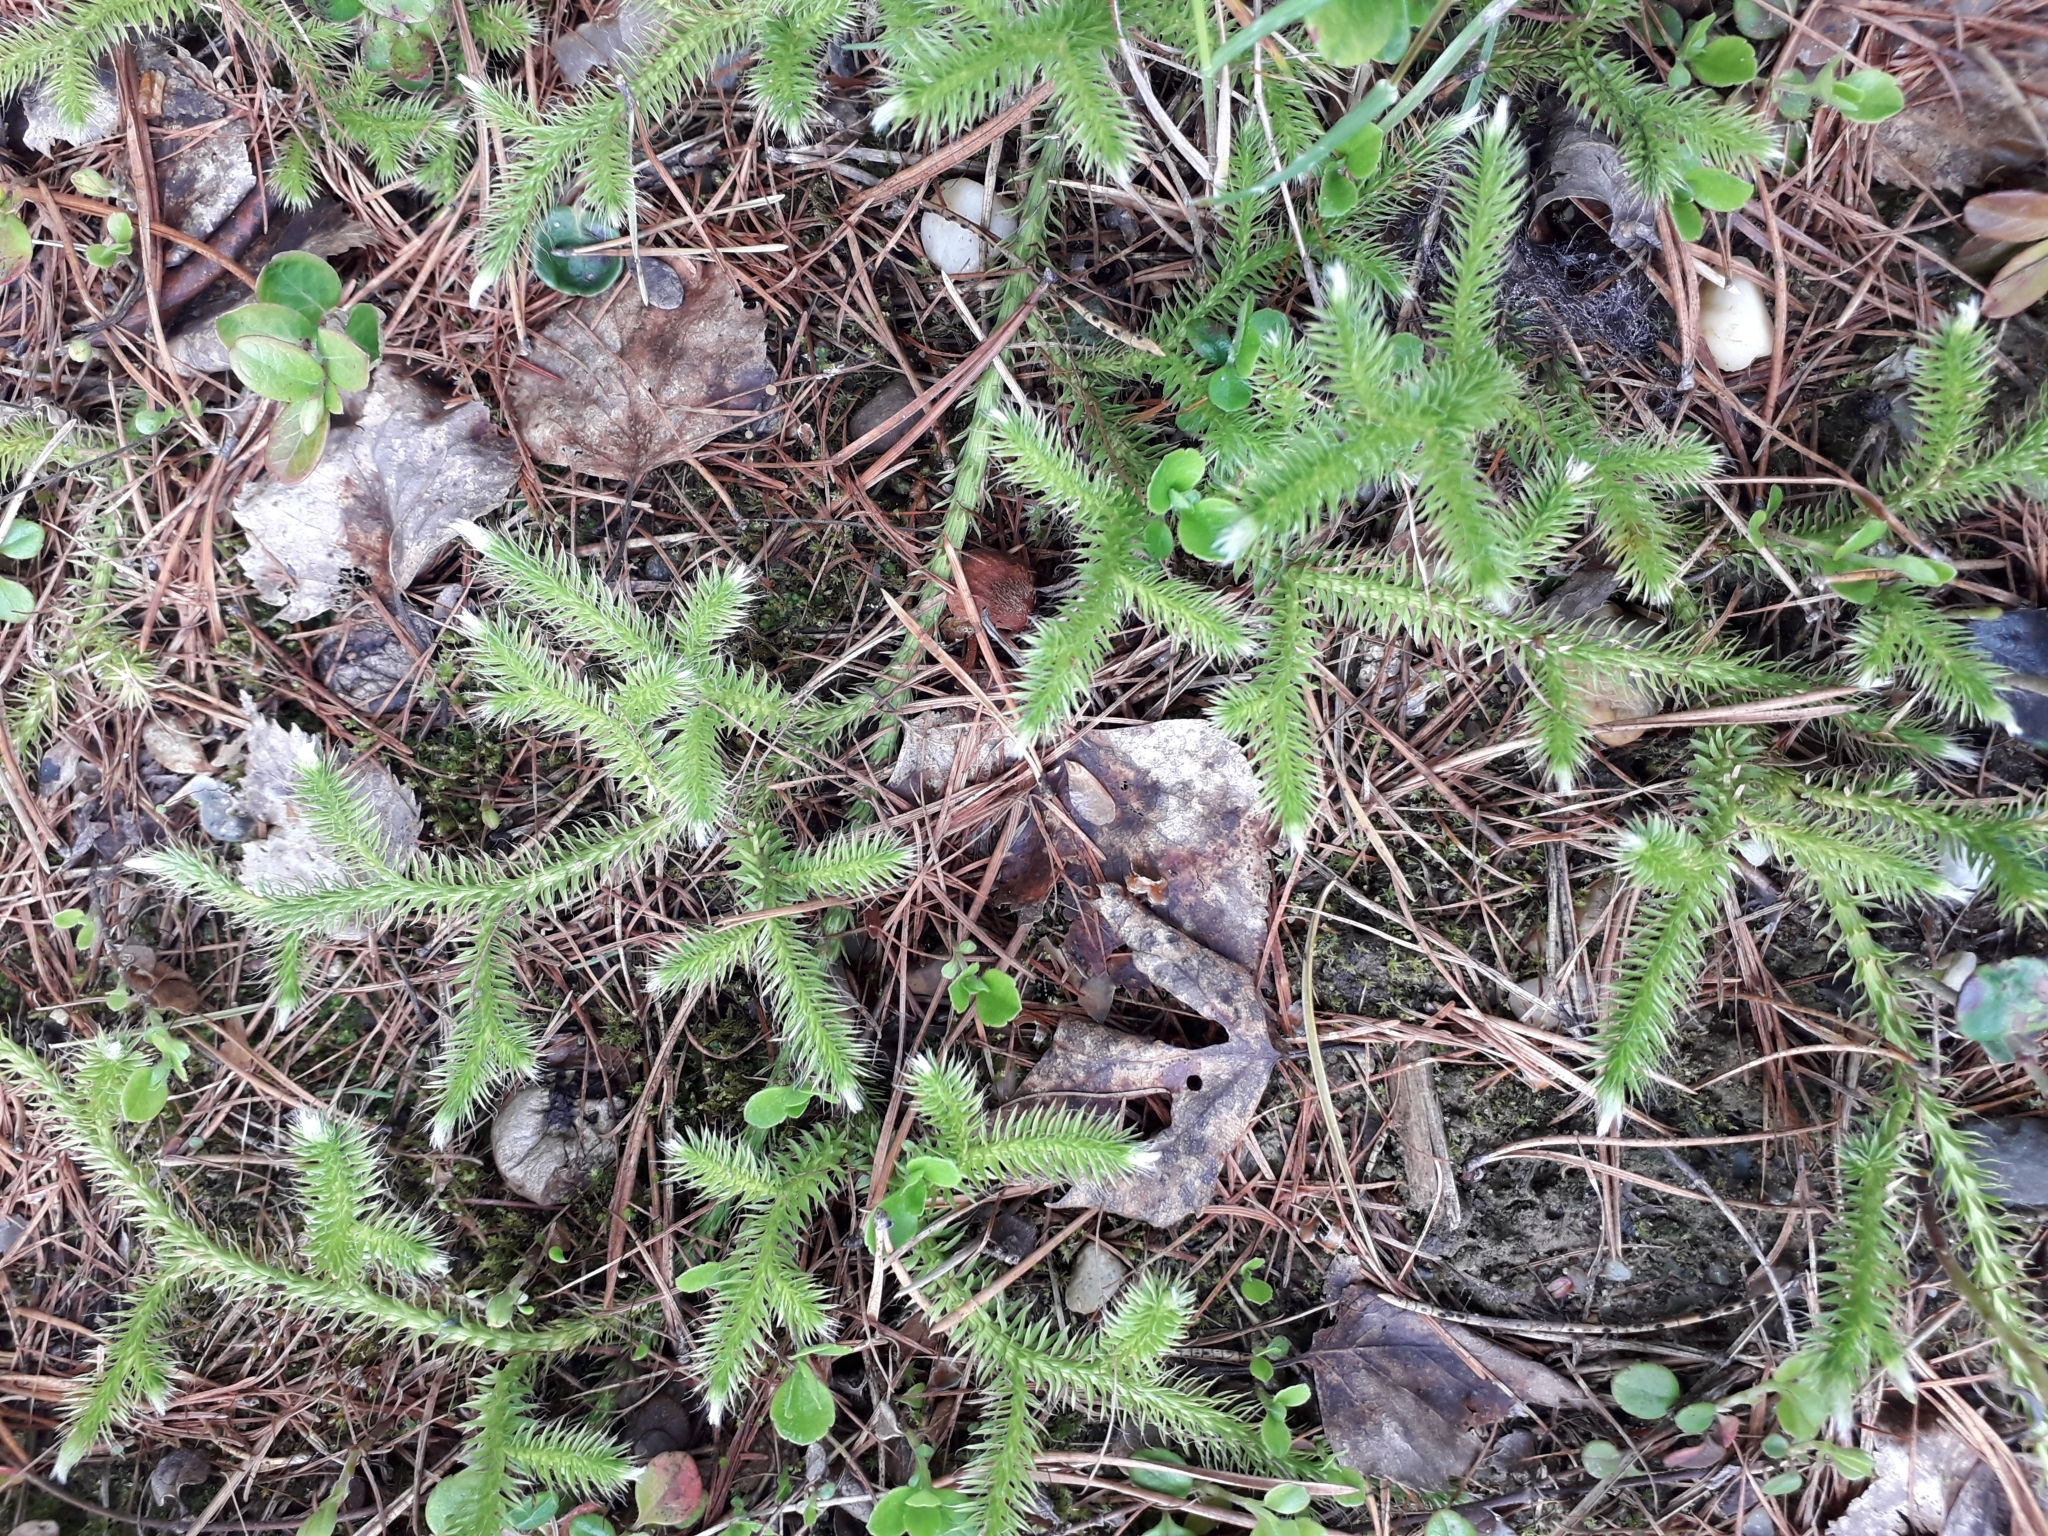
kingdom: Plantae
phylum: Tracheophyta
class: Lycopodiopsida
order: Lycopodiales
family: Lycopodiaceae
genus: Lycopodium
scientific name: Lycopodium clavatum
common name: Stag's-horn clubmoss
